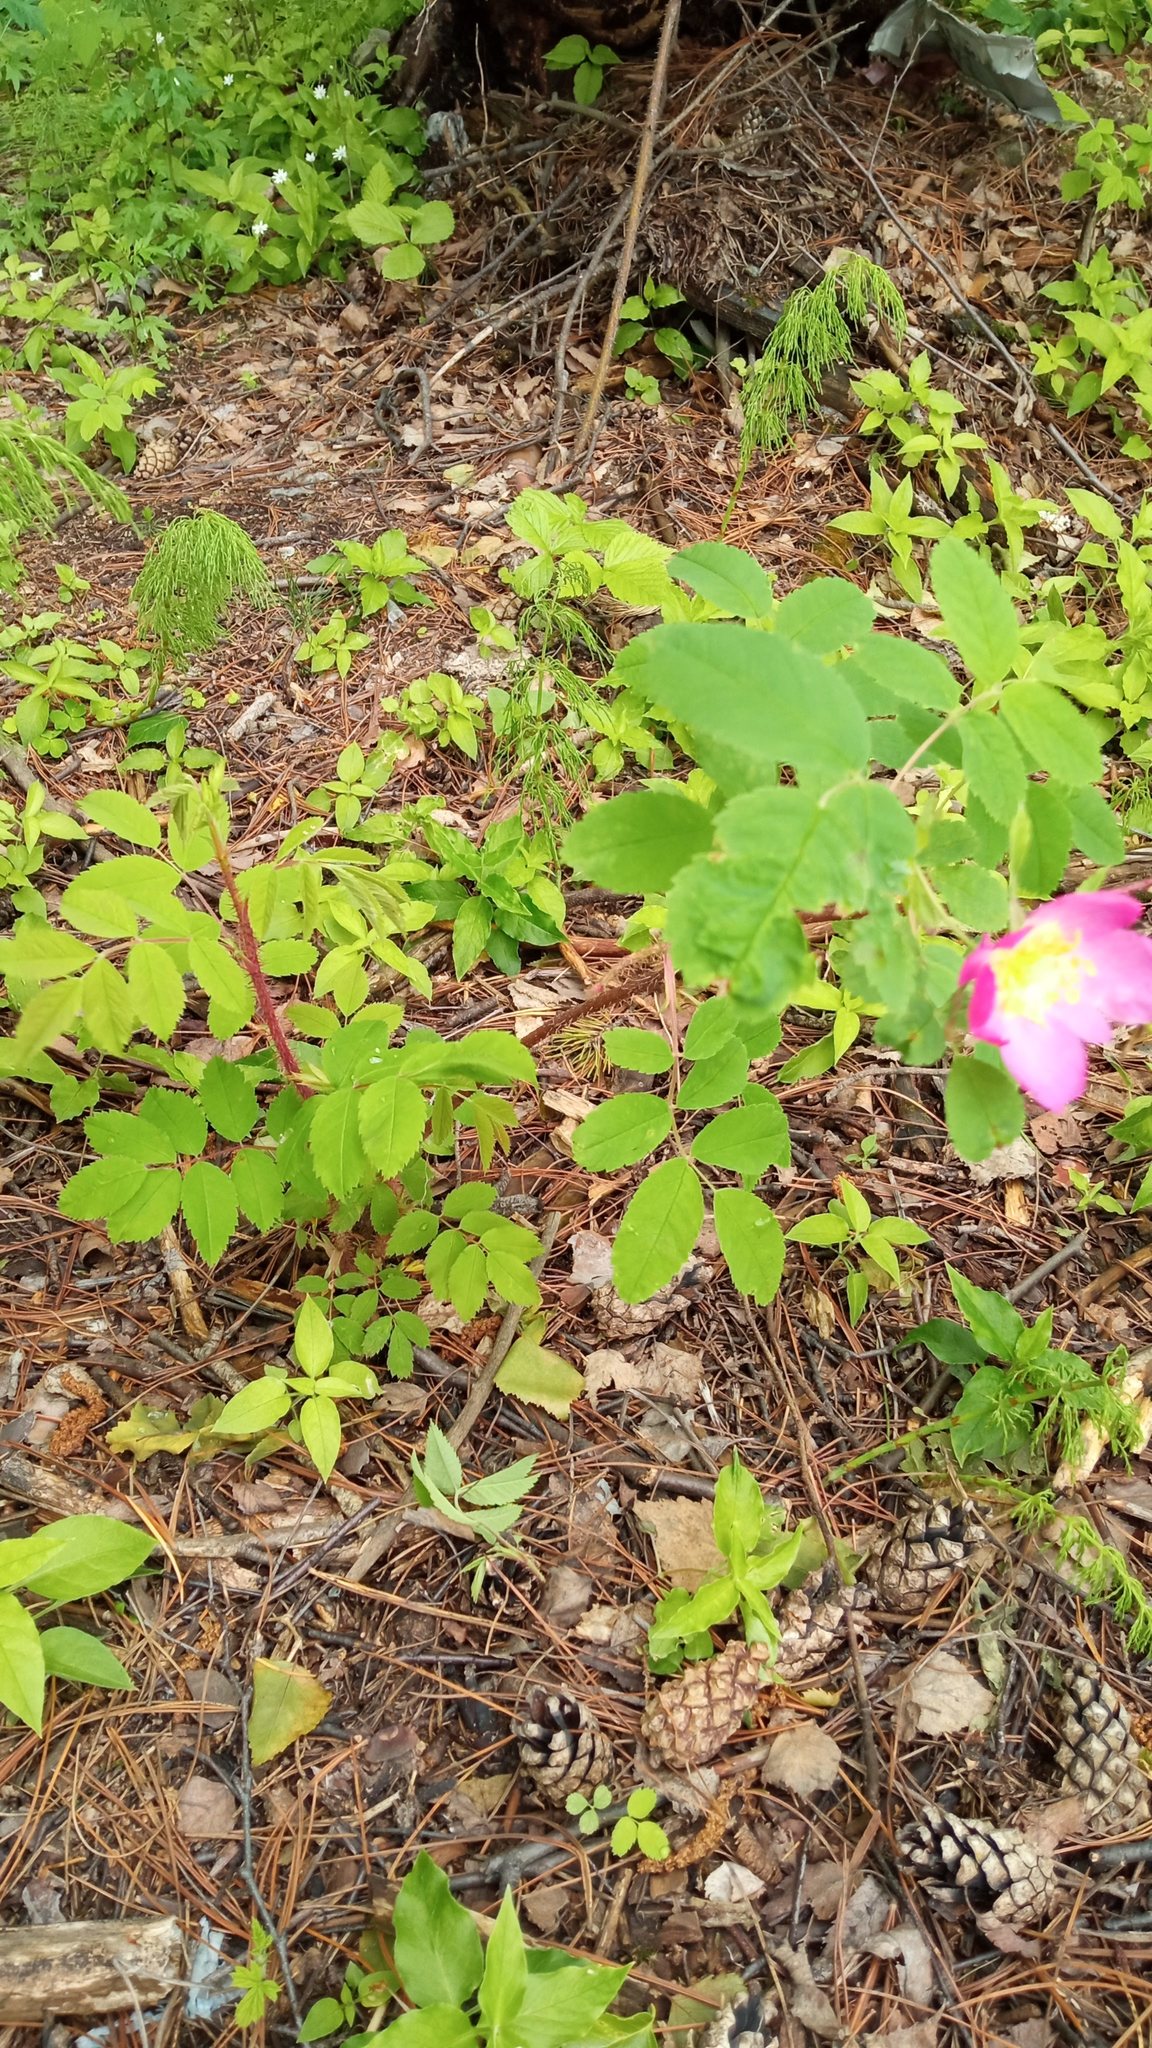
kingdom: Plantae
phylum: Tracheophyta
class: Magnoliopsida
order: Rosales
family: Rosaceae
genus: Rosa
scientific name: Rosa acicularis
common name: Prickly rose
